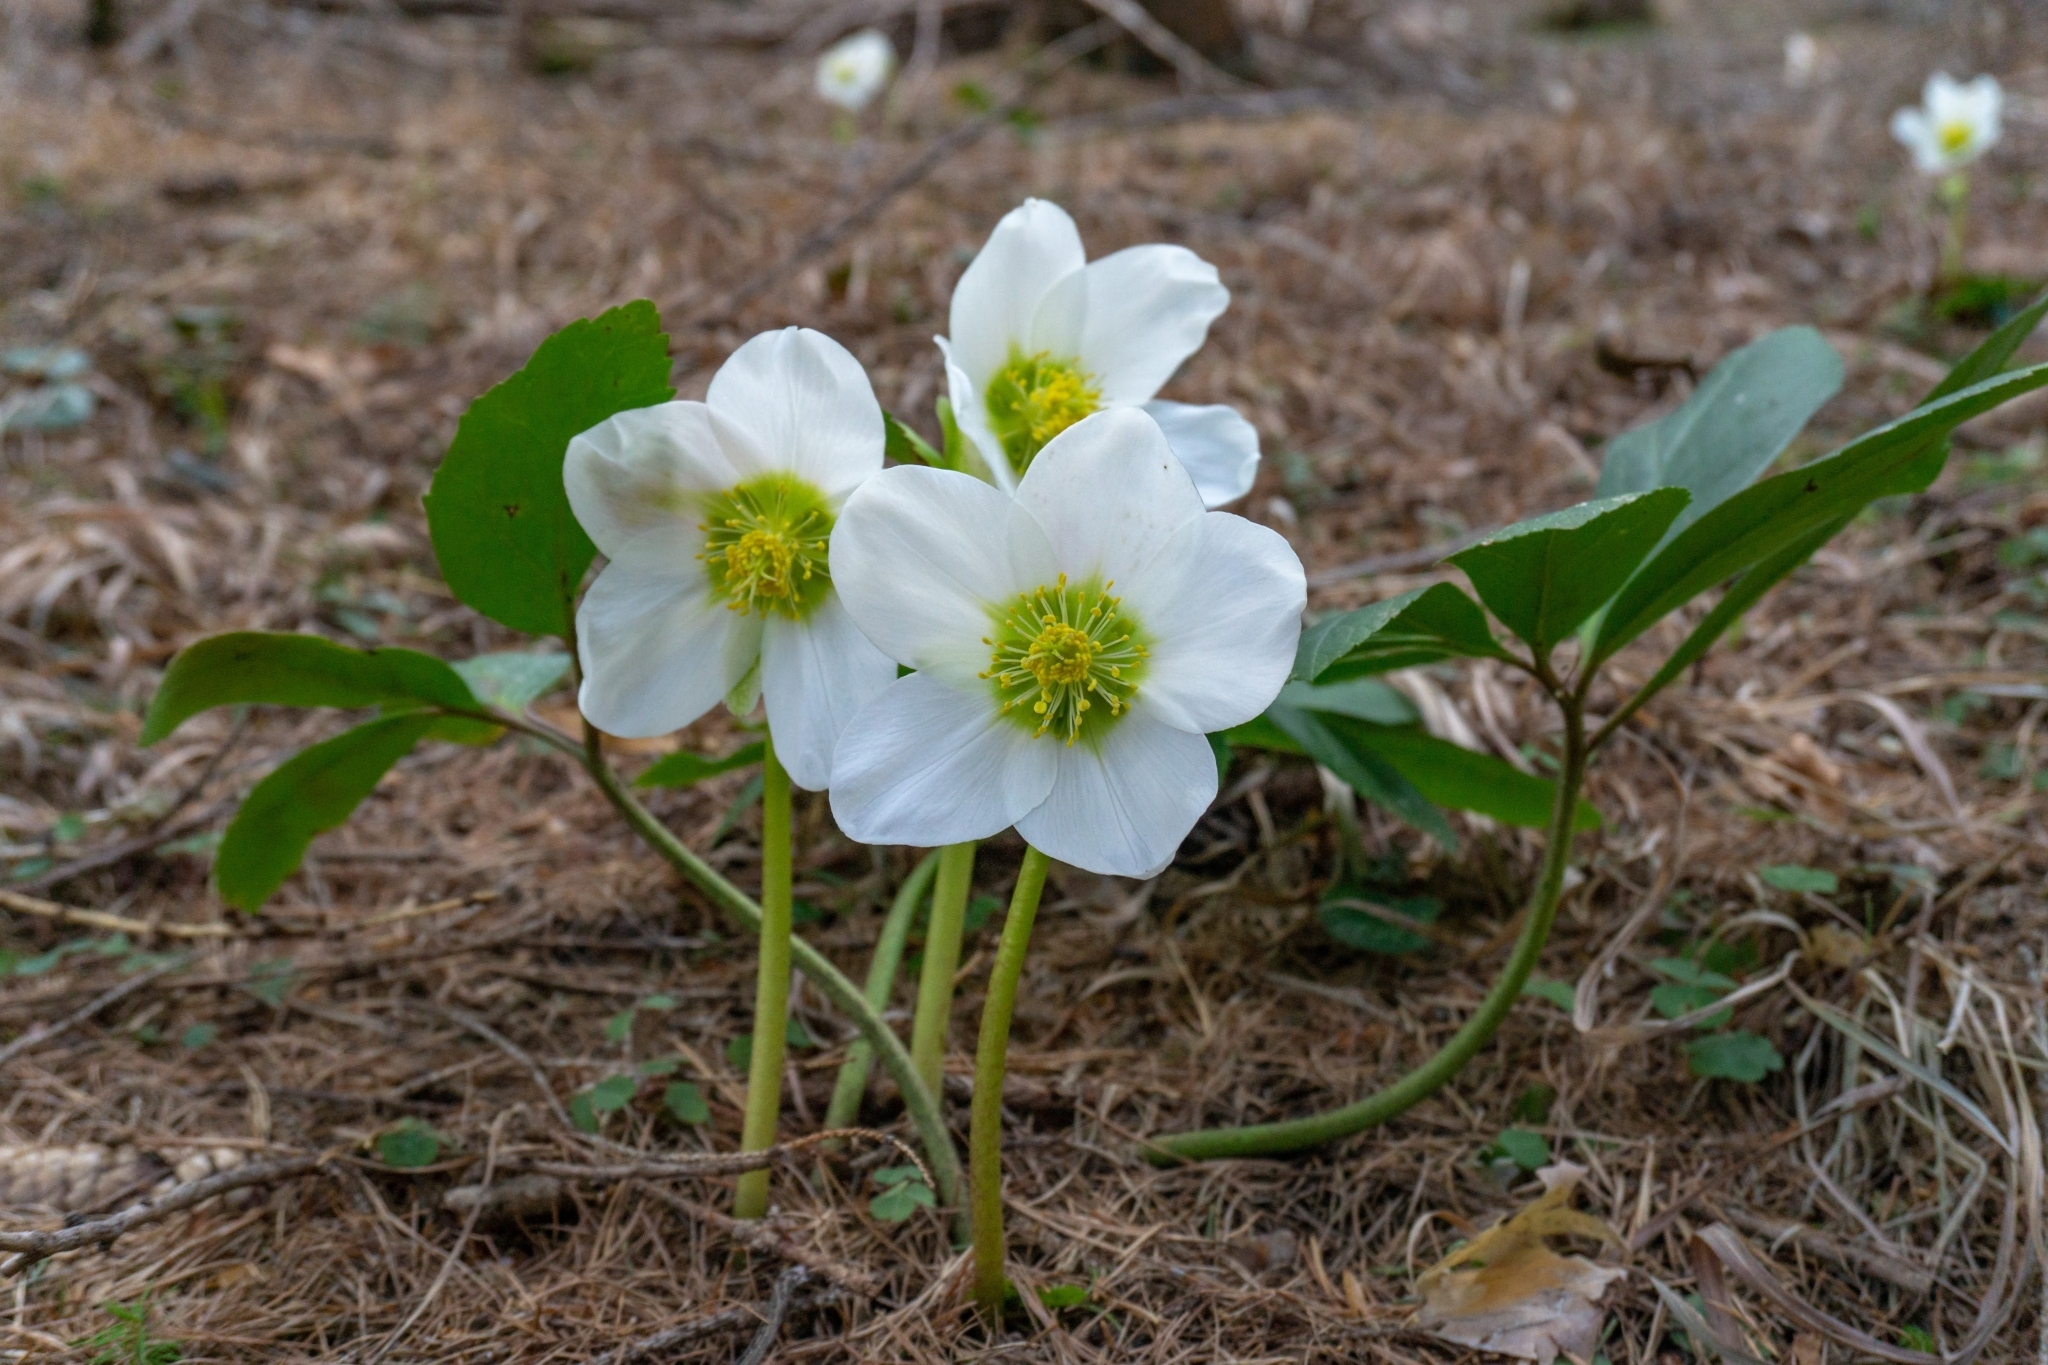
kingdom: Plantae
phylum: Tracheophyta
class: Magnoliopsida
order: Ranunculales
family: Ranunculaceae
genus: Helleborus
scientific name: Helleborus niger
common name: Black hellebore
